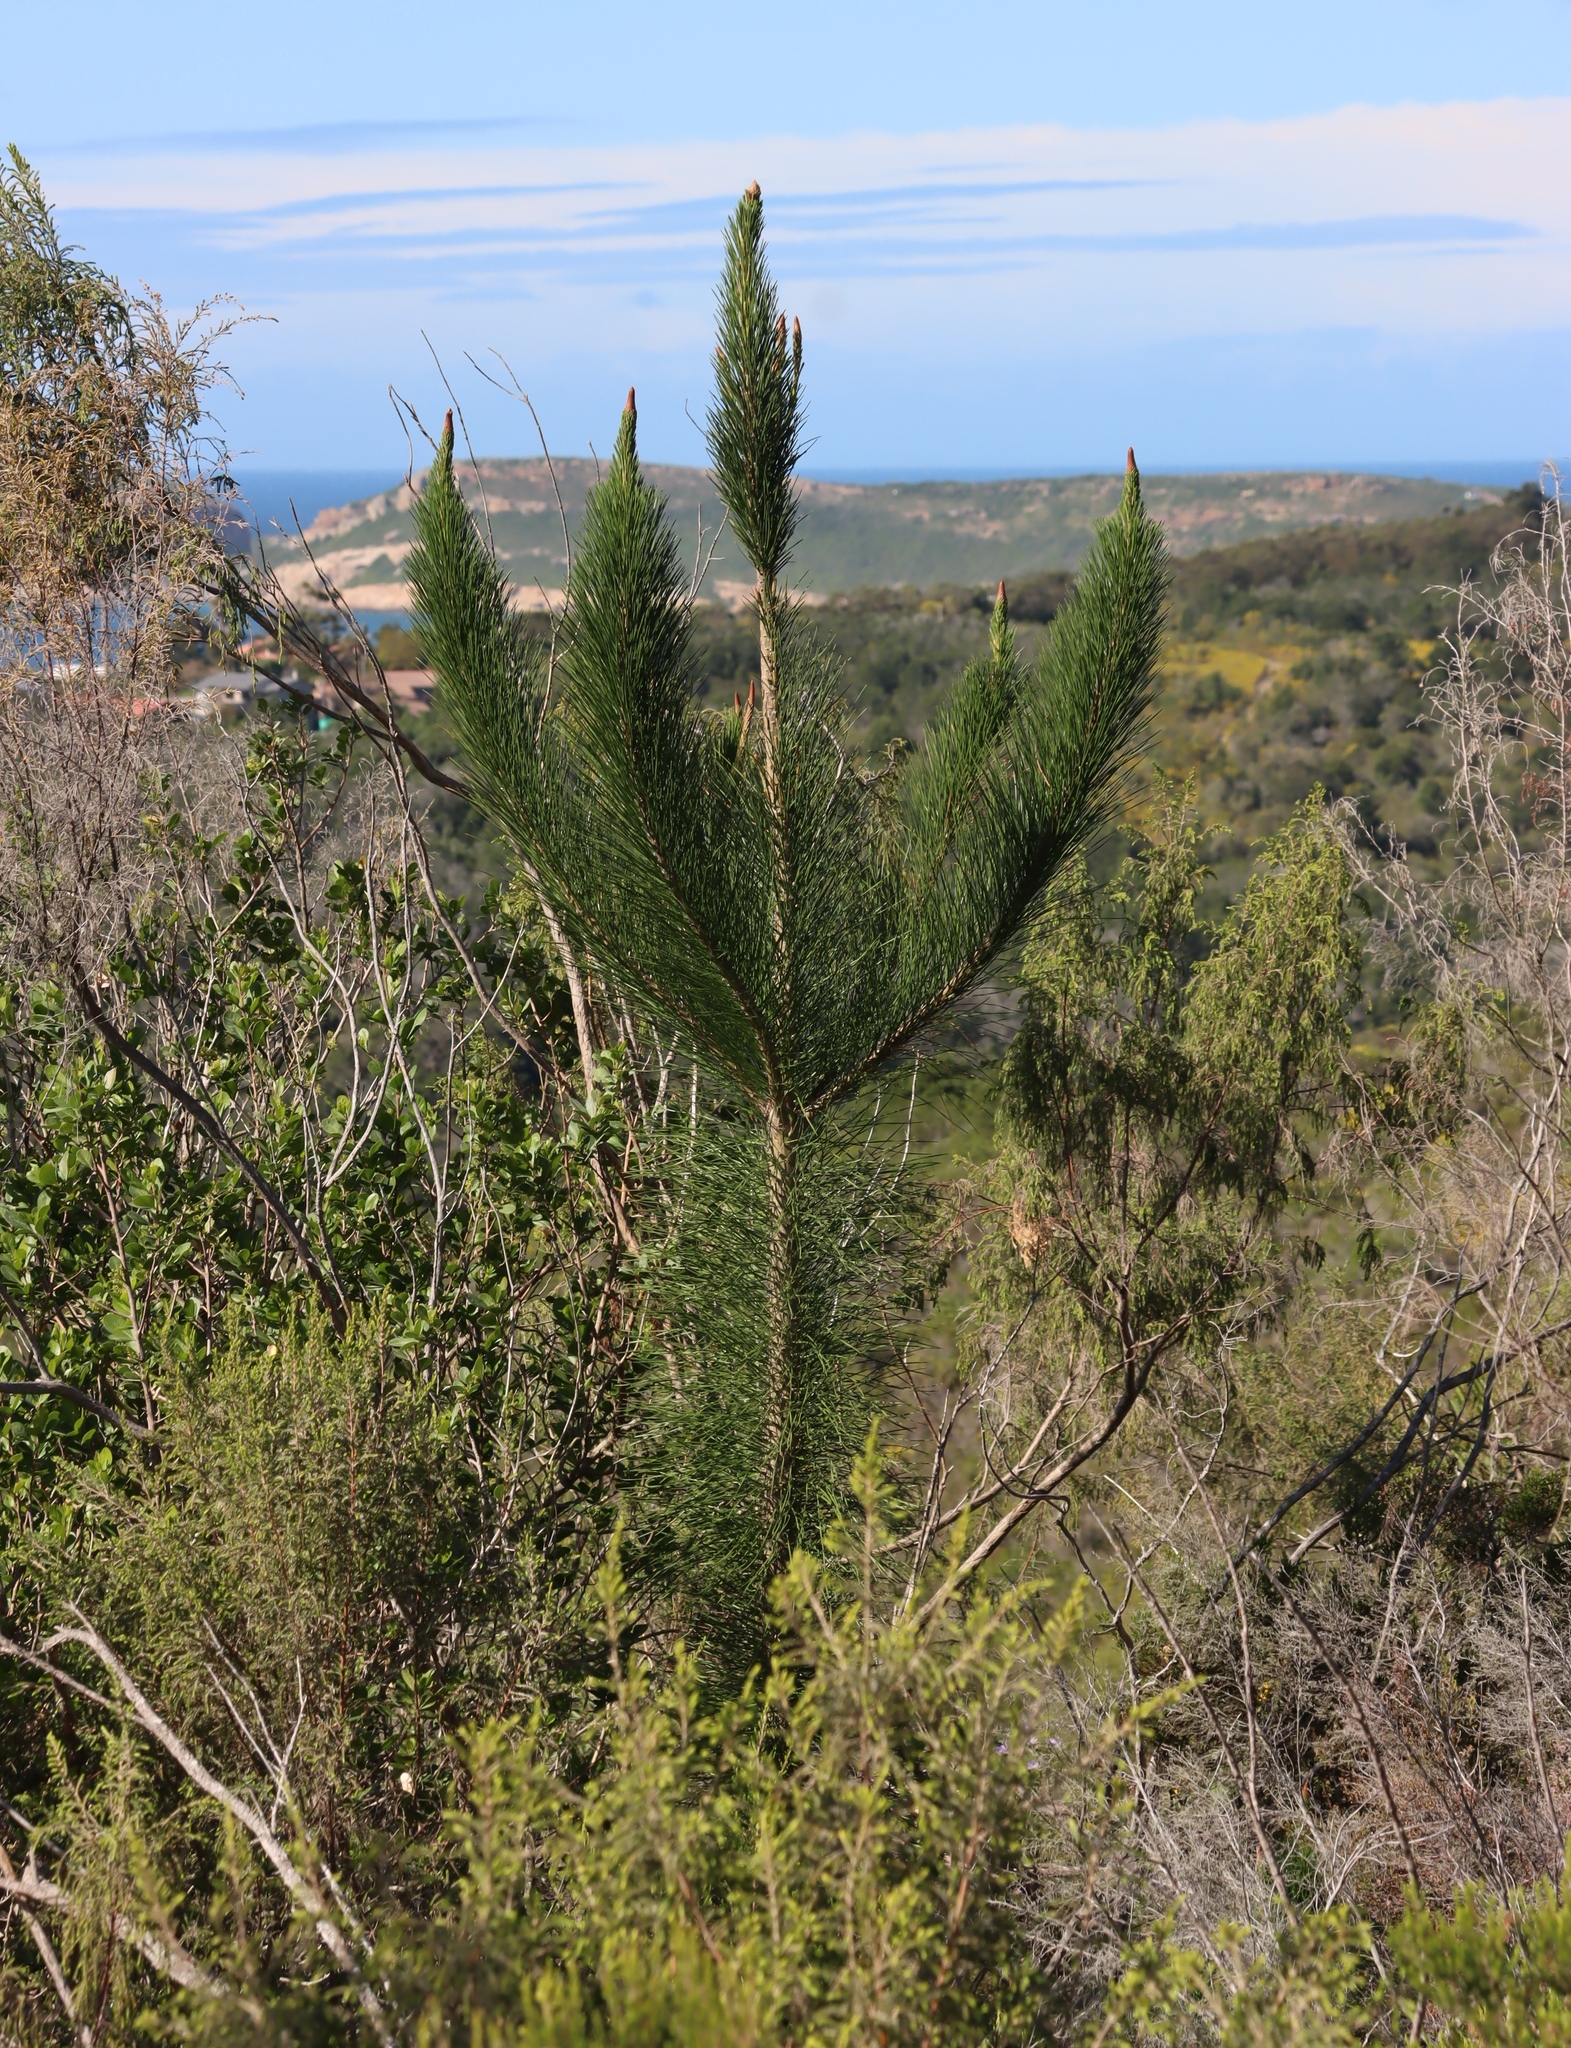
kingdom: Plantae
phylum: Tracheophyta
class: Pinopsida
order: Pinales
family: Pinaceae
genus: Pinus
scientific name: Pinus radiata
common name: Monterey pine
